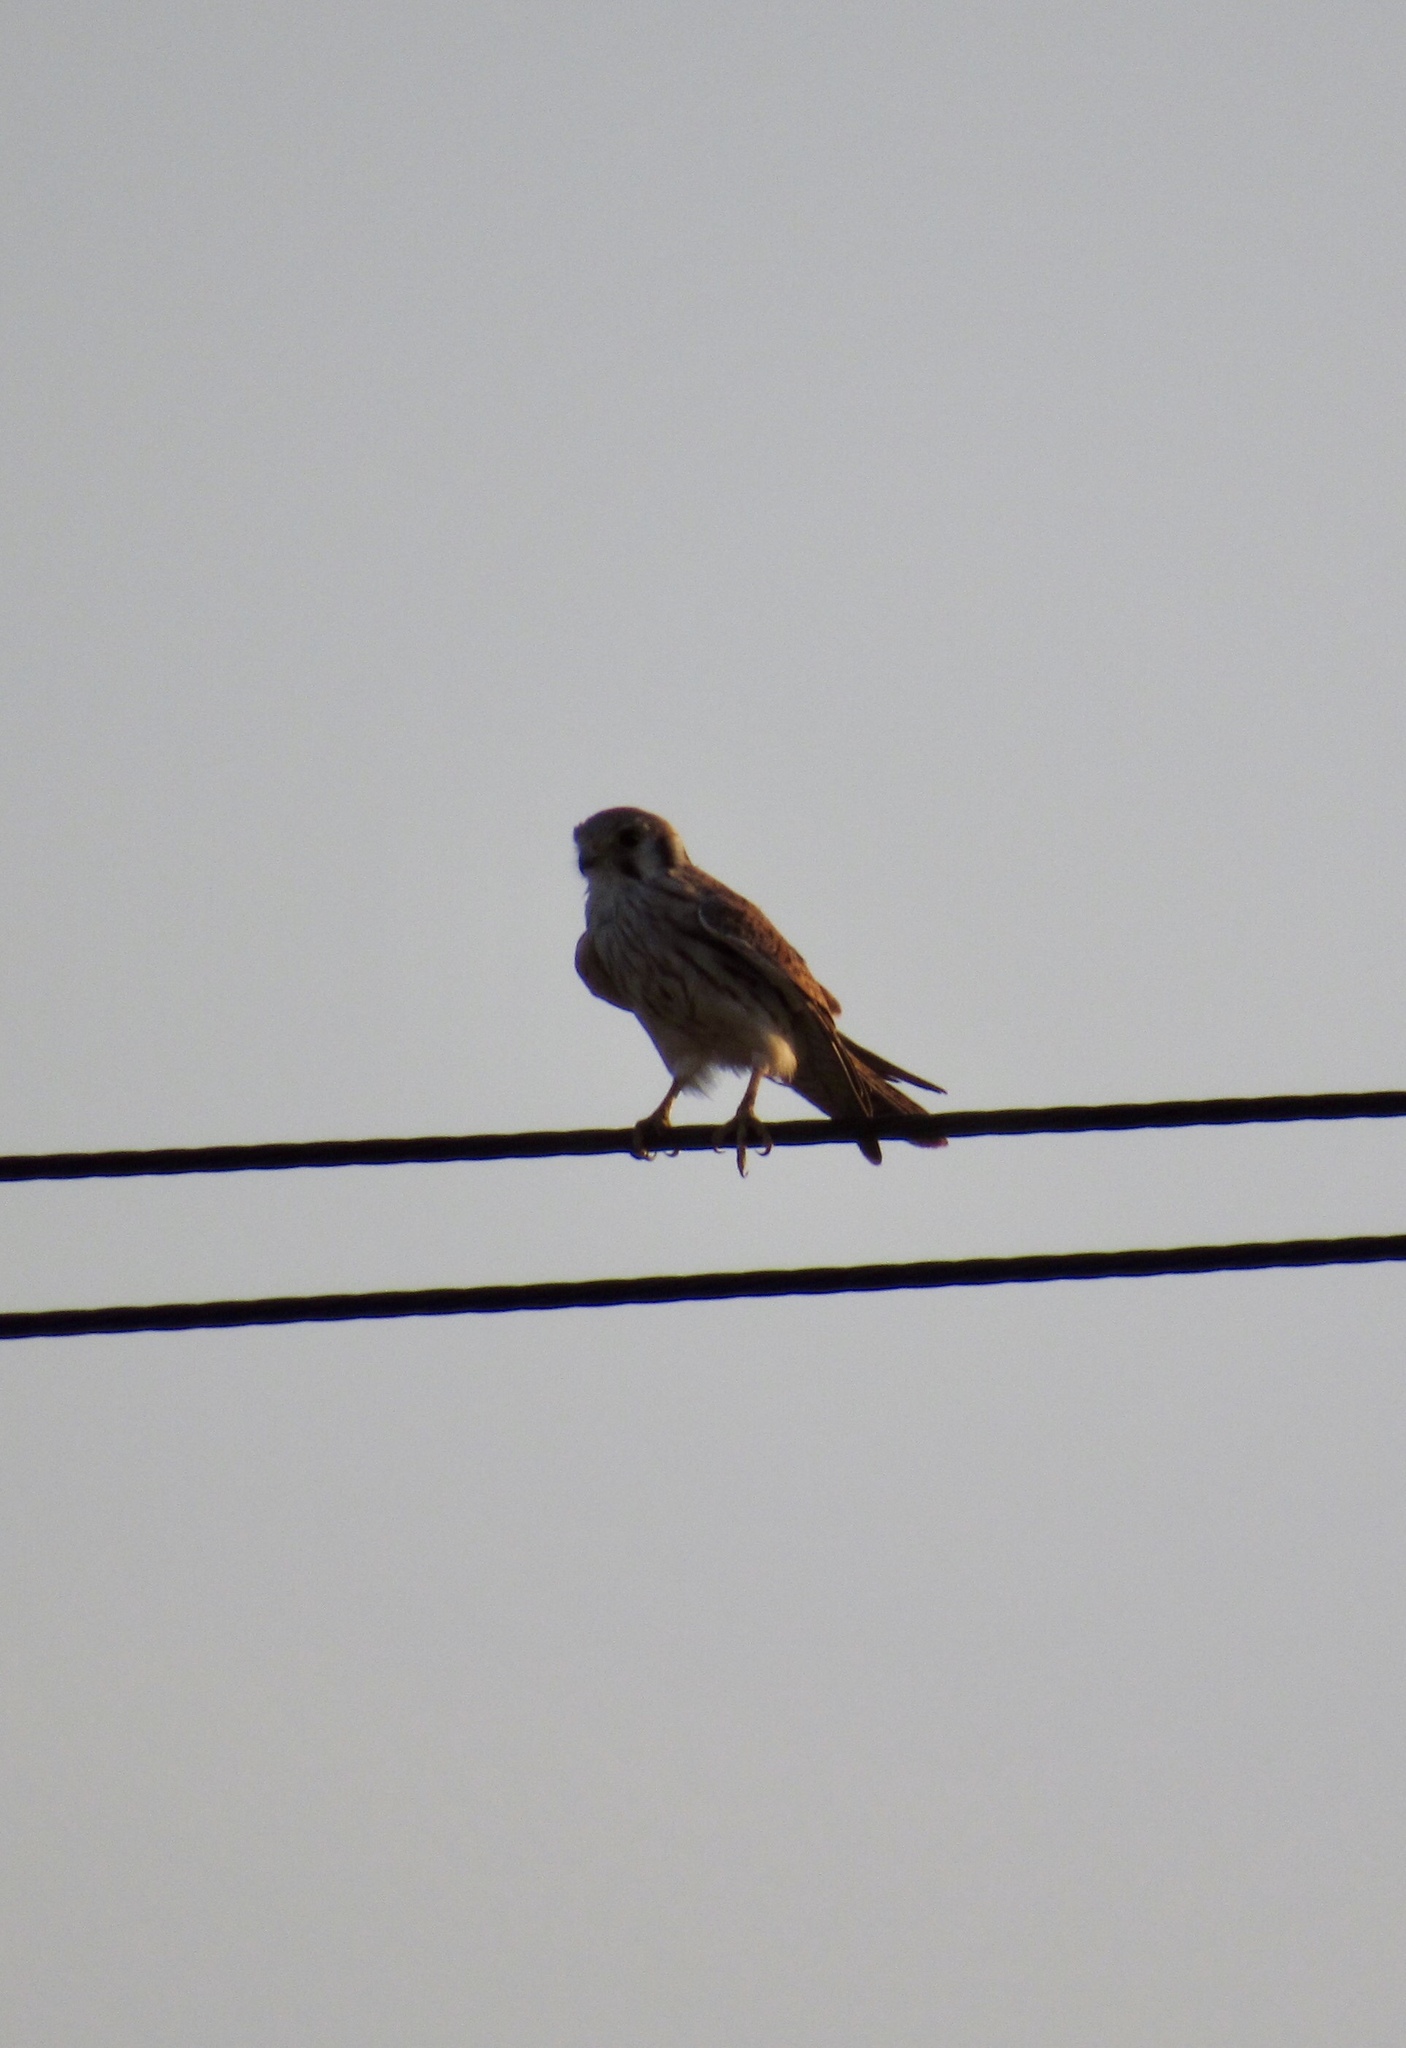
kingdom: Animalia
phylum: Chordata
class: Aves
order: Falconiformes
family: Falconidae
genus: Falco
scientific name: Falco sparverius
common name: American kestrel
